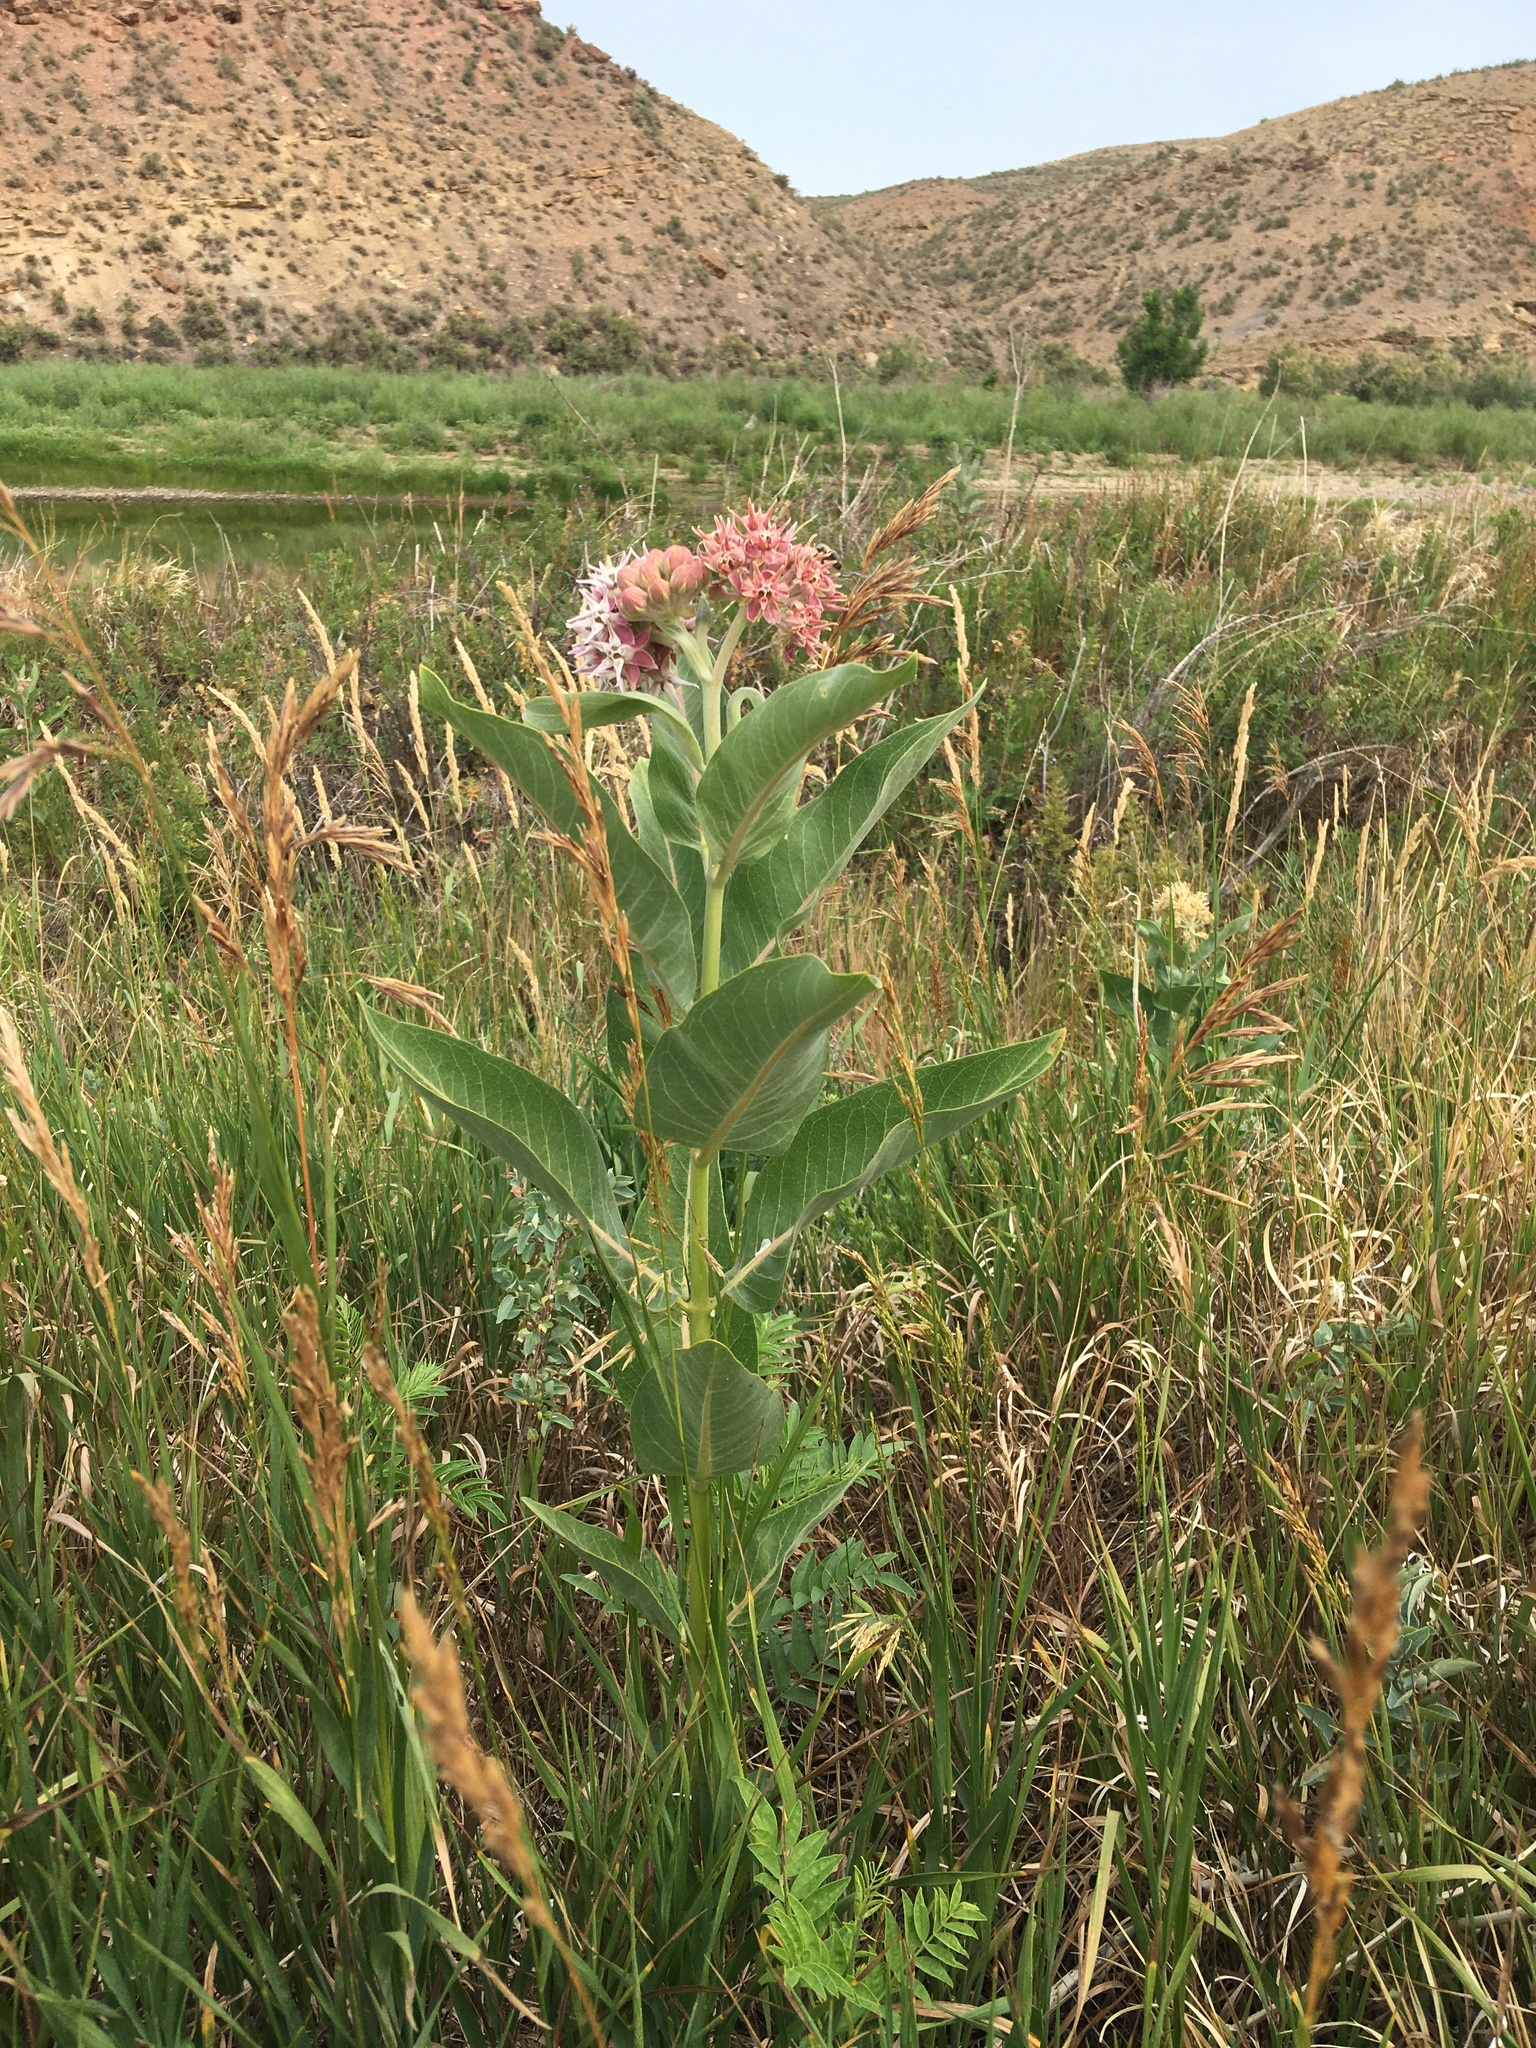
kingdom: Plantae
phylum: Tracheophyta
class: Magnoliopsida
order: Gentianales
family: Apocynaceae
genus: Asclepias
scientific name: Asclepias speciosa
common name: Showy milkweed
